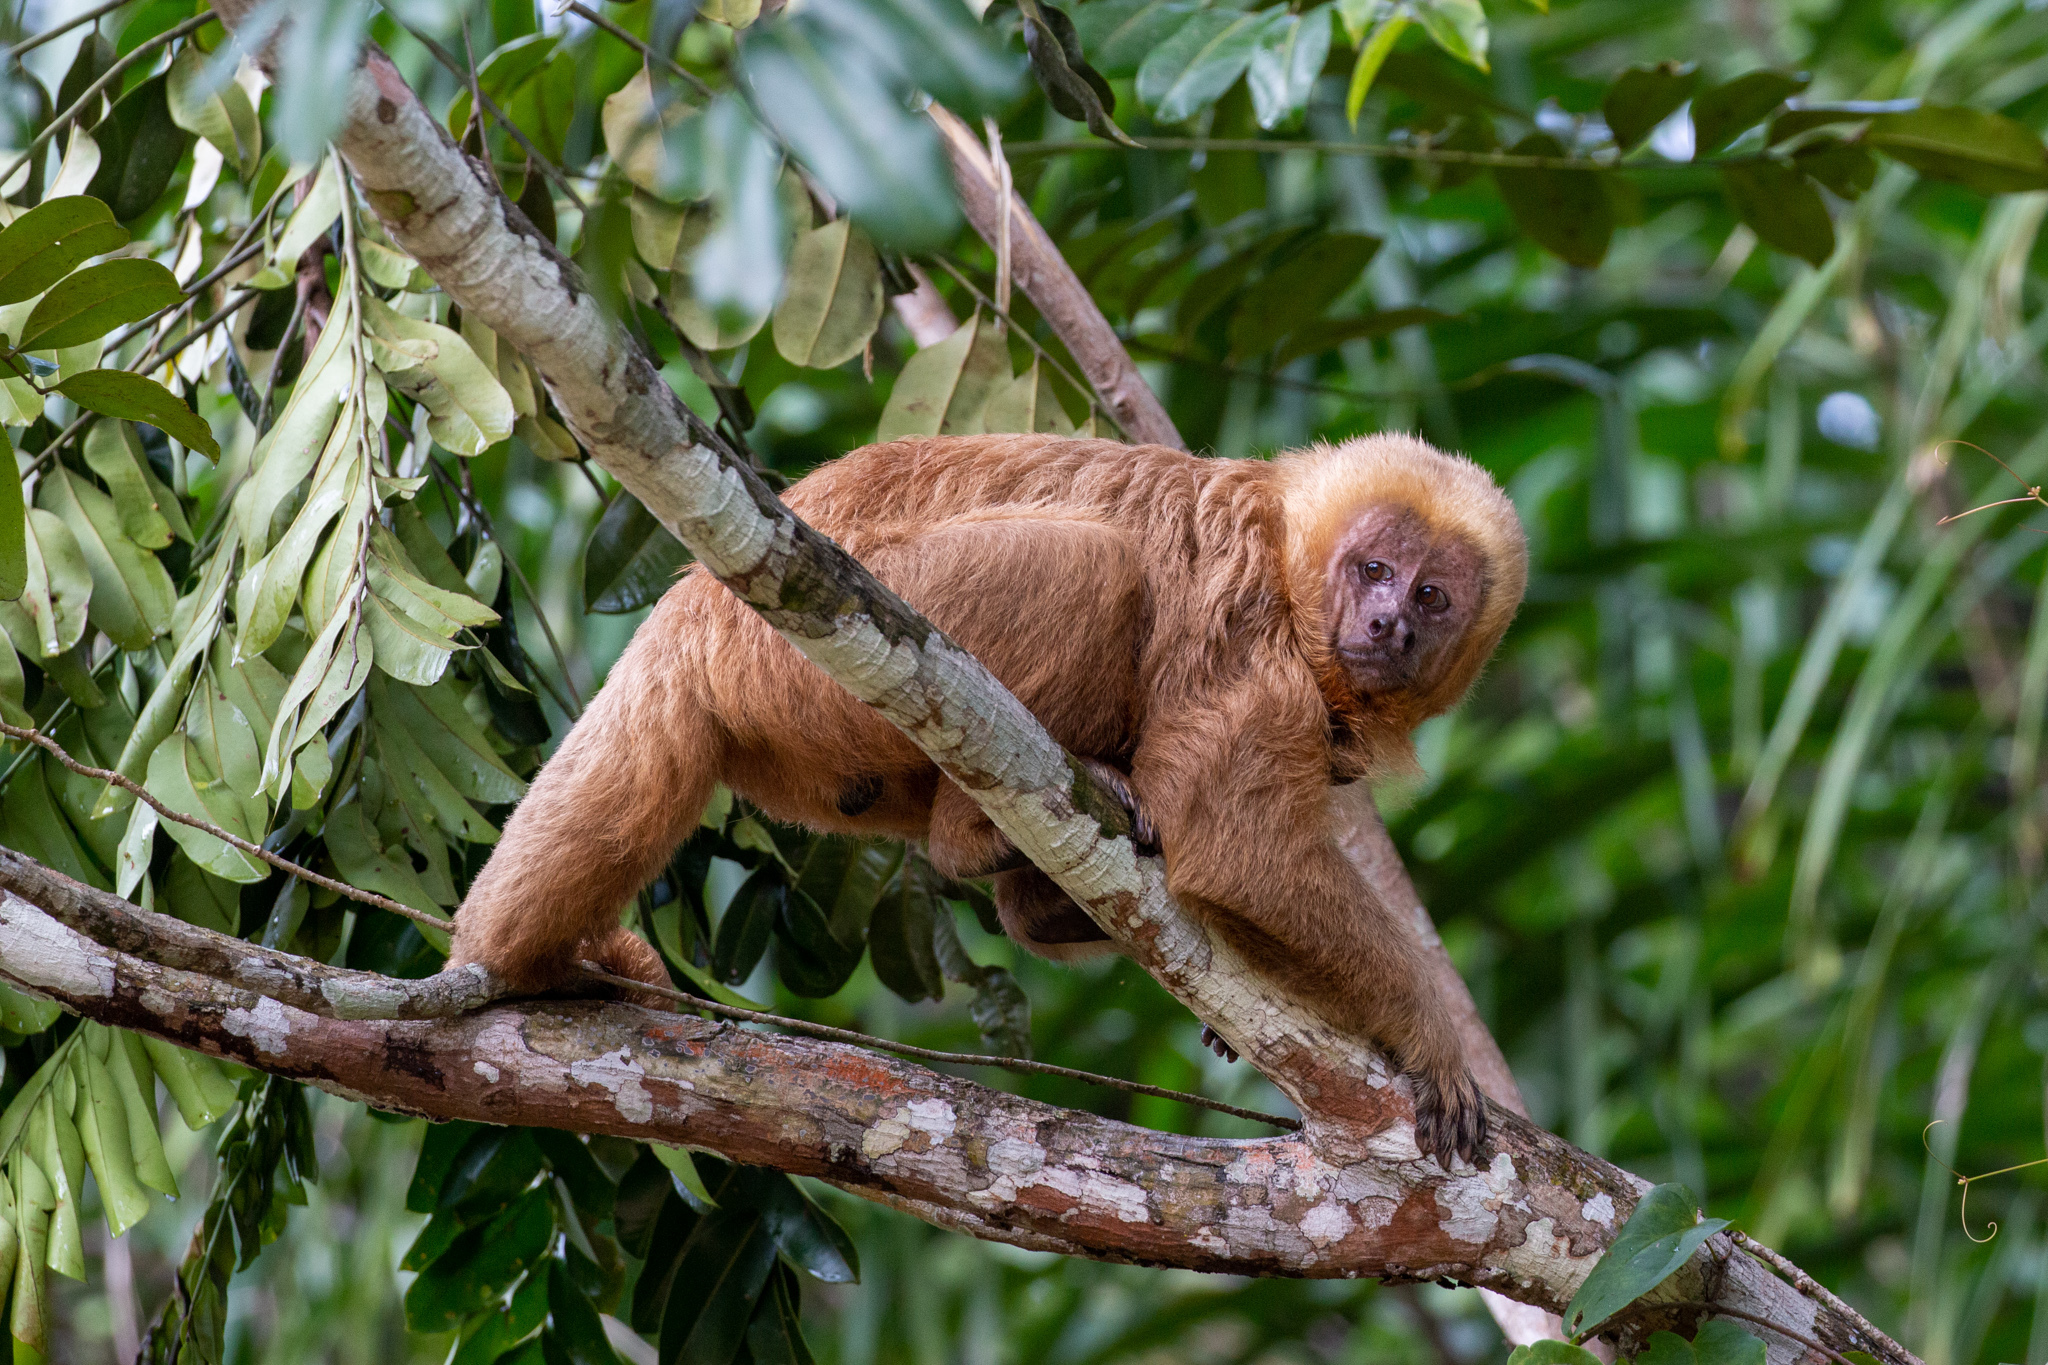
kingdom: Animalia
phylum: Chordata
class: Mammalia
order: Primates
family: Cebidae
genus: Sapajus
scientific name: Sapajus flavius
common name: Blond capuchin
